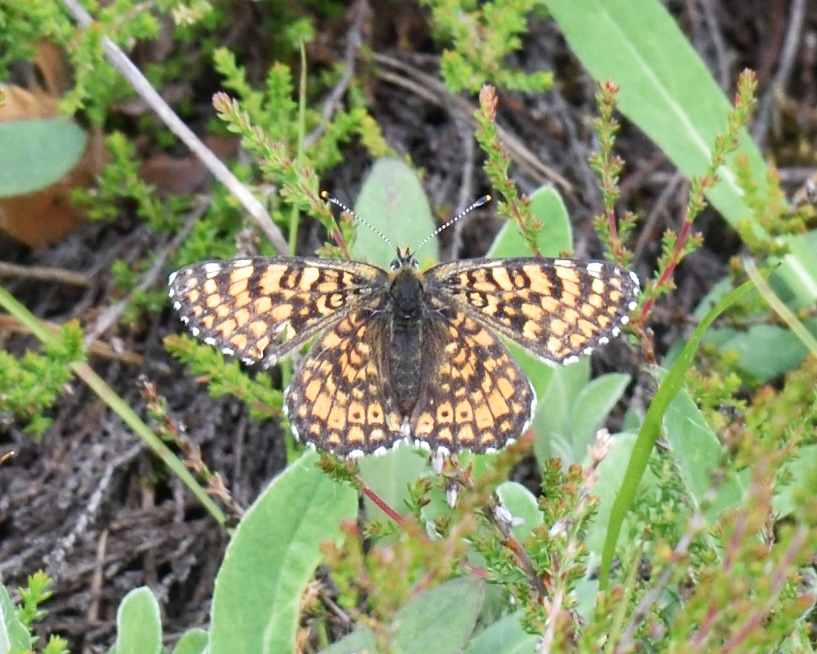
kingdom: Animalia
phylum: Arthropoda
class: Insecta
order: Lepidoptera
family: Nymphalidae
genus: Melitaea
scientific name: Melitaea cinxia
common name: Glanville fritillary
